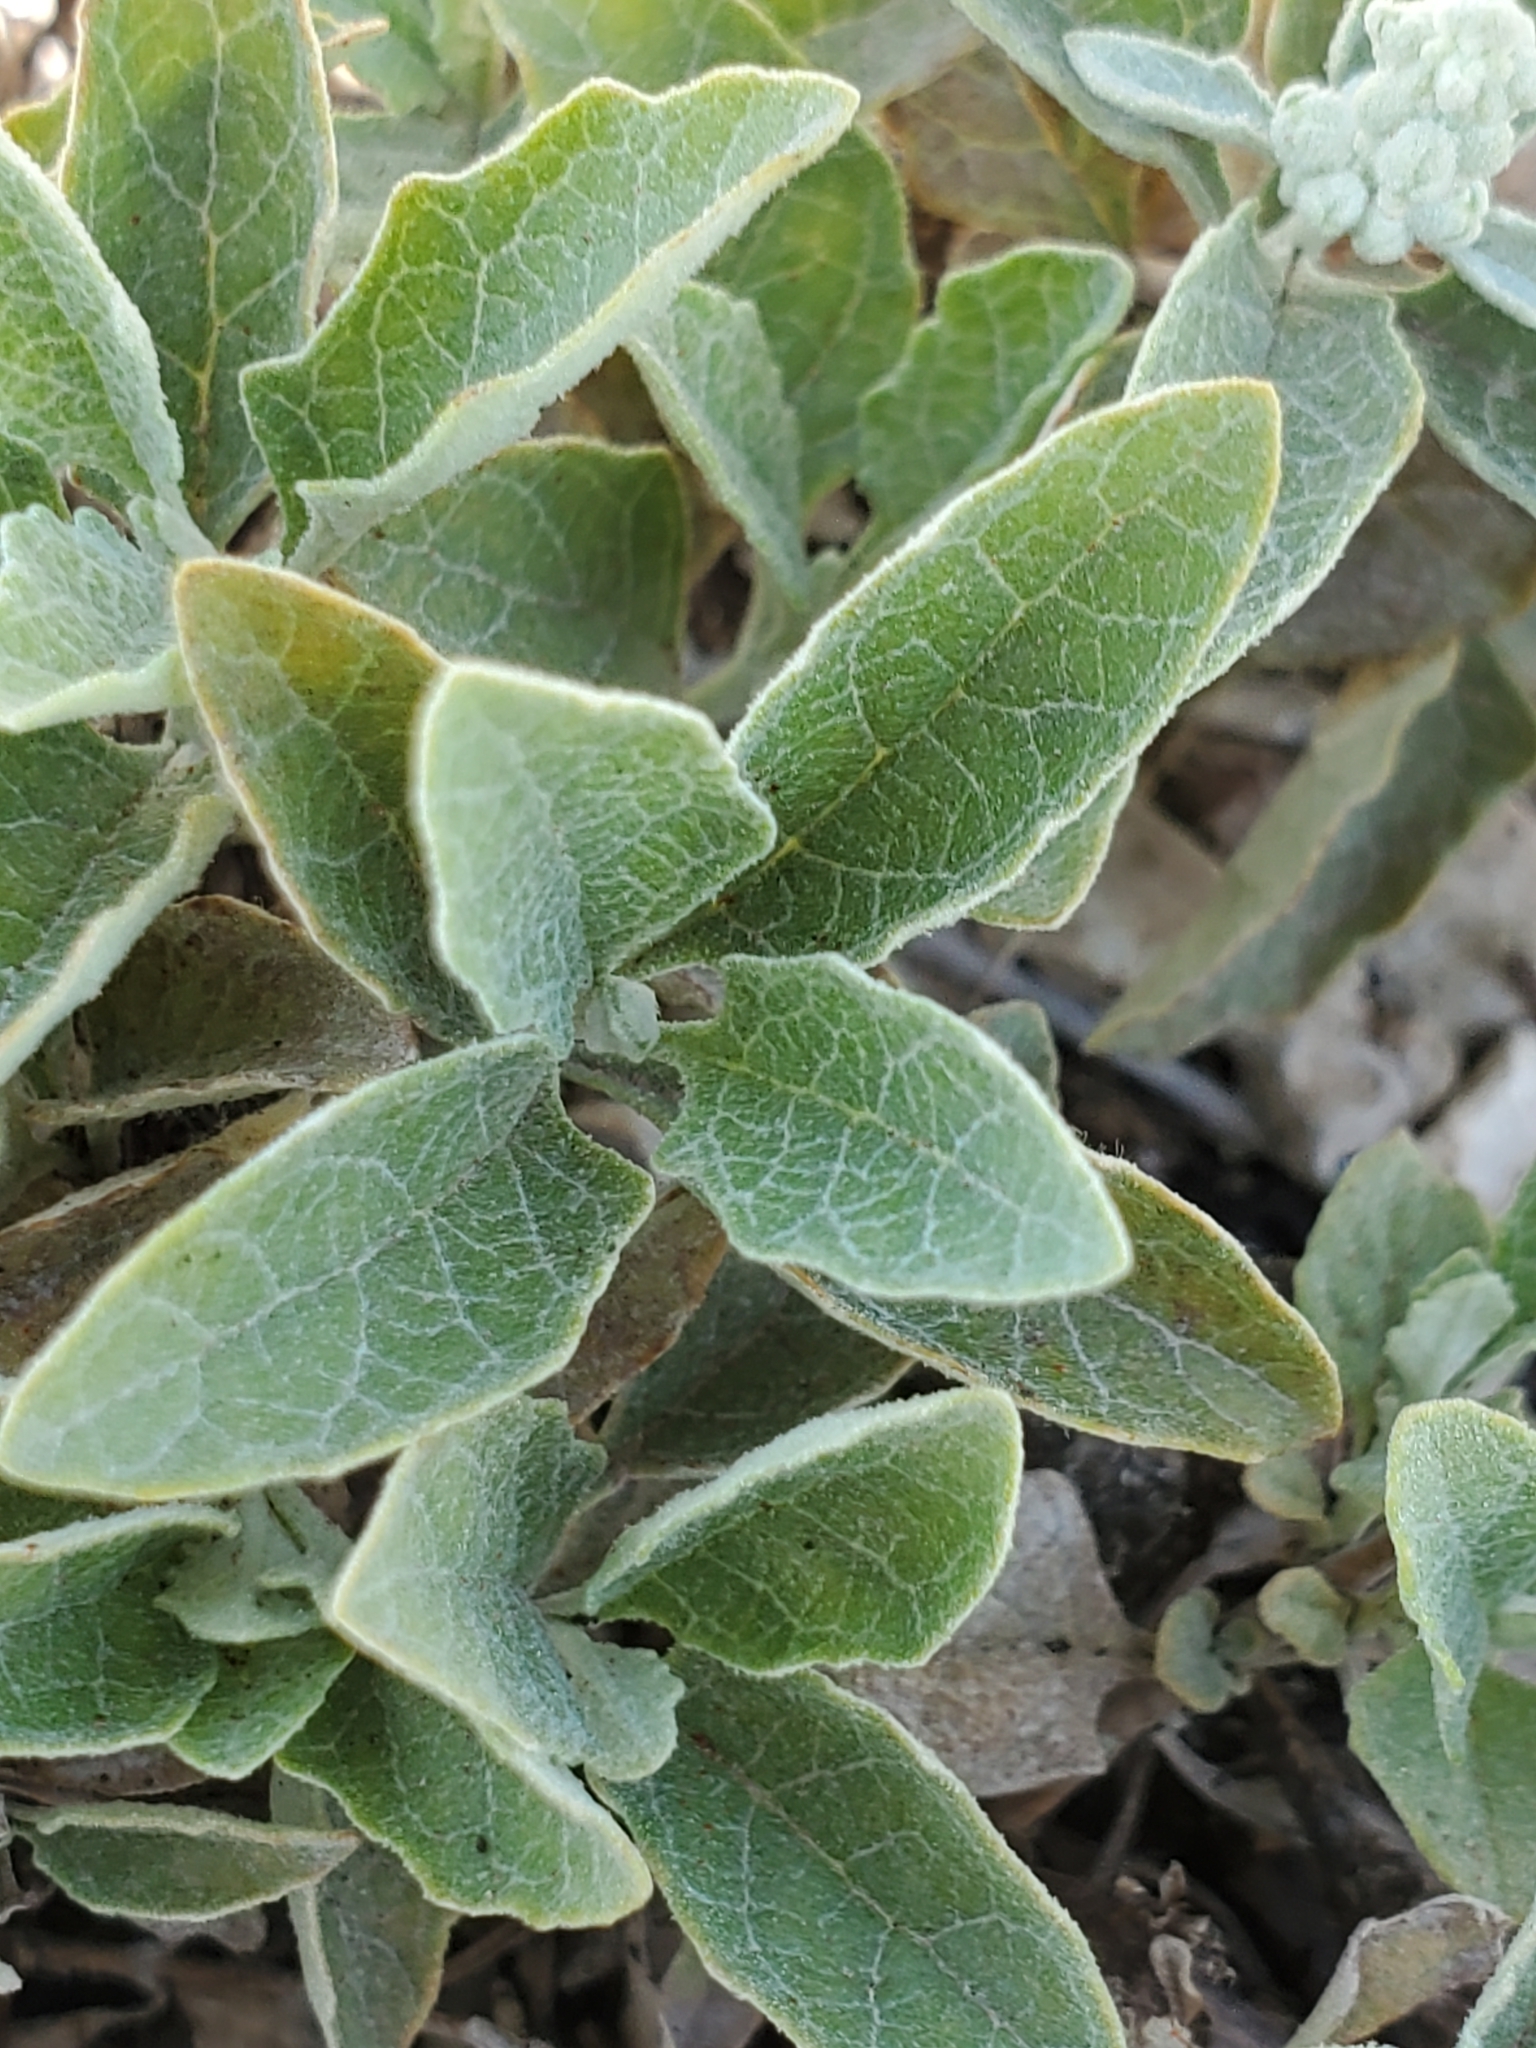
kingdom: Plantae
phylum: Tracheophyta
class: Magnoliopsida
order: Lamiales
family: Scrophulariaceae
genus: Buddleja
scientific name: Buddleja racemosa
